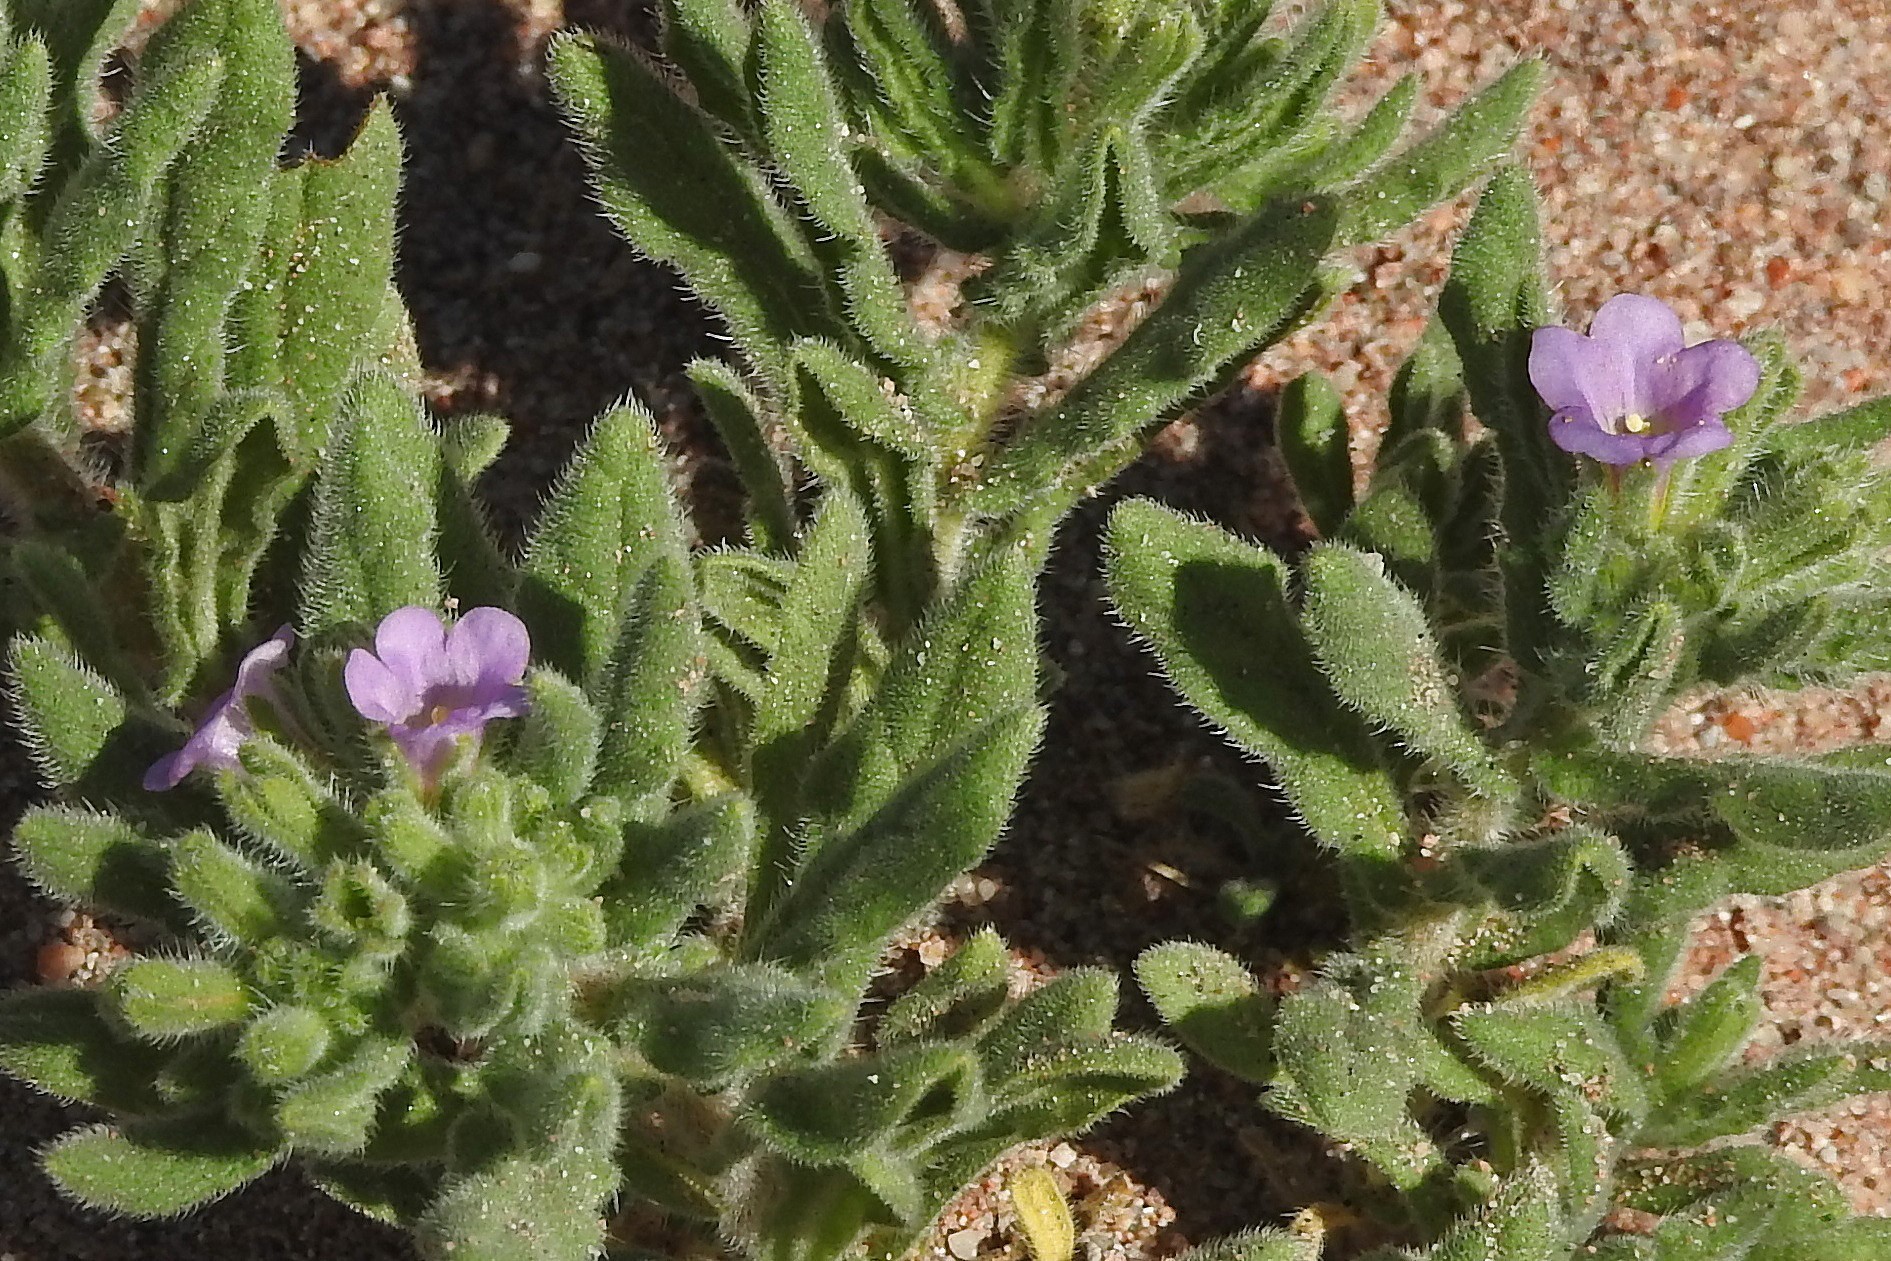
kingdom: Plantae
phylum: Tracheophyta
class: Magnoliopsida
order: Boraginales
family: Namaceae
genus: Nama
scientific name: Nama jamaicensis
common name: Jamaicanweed
